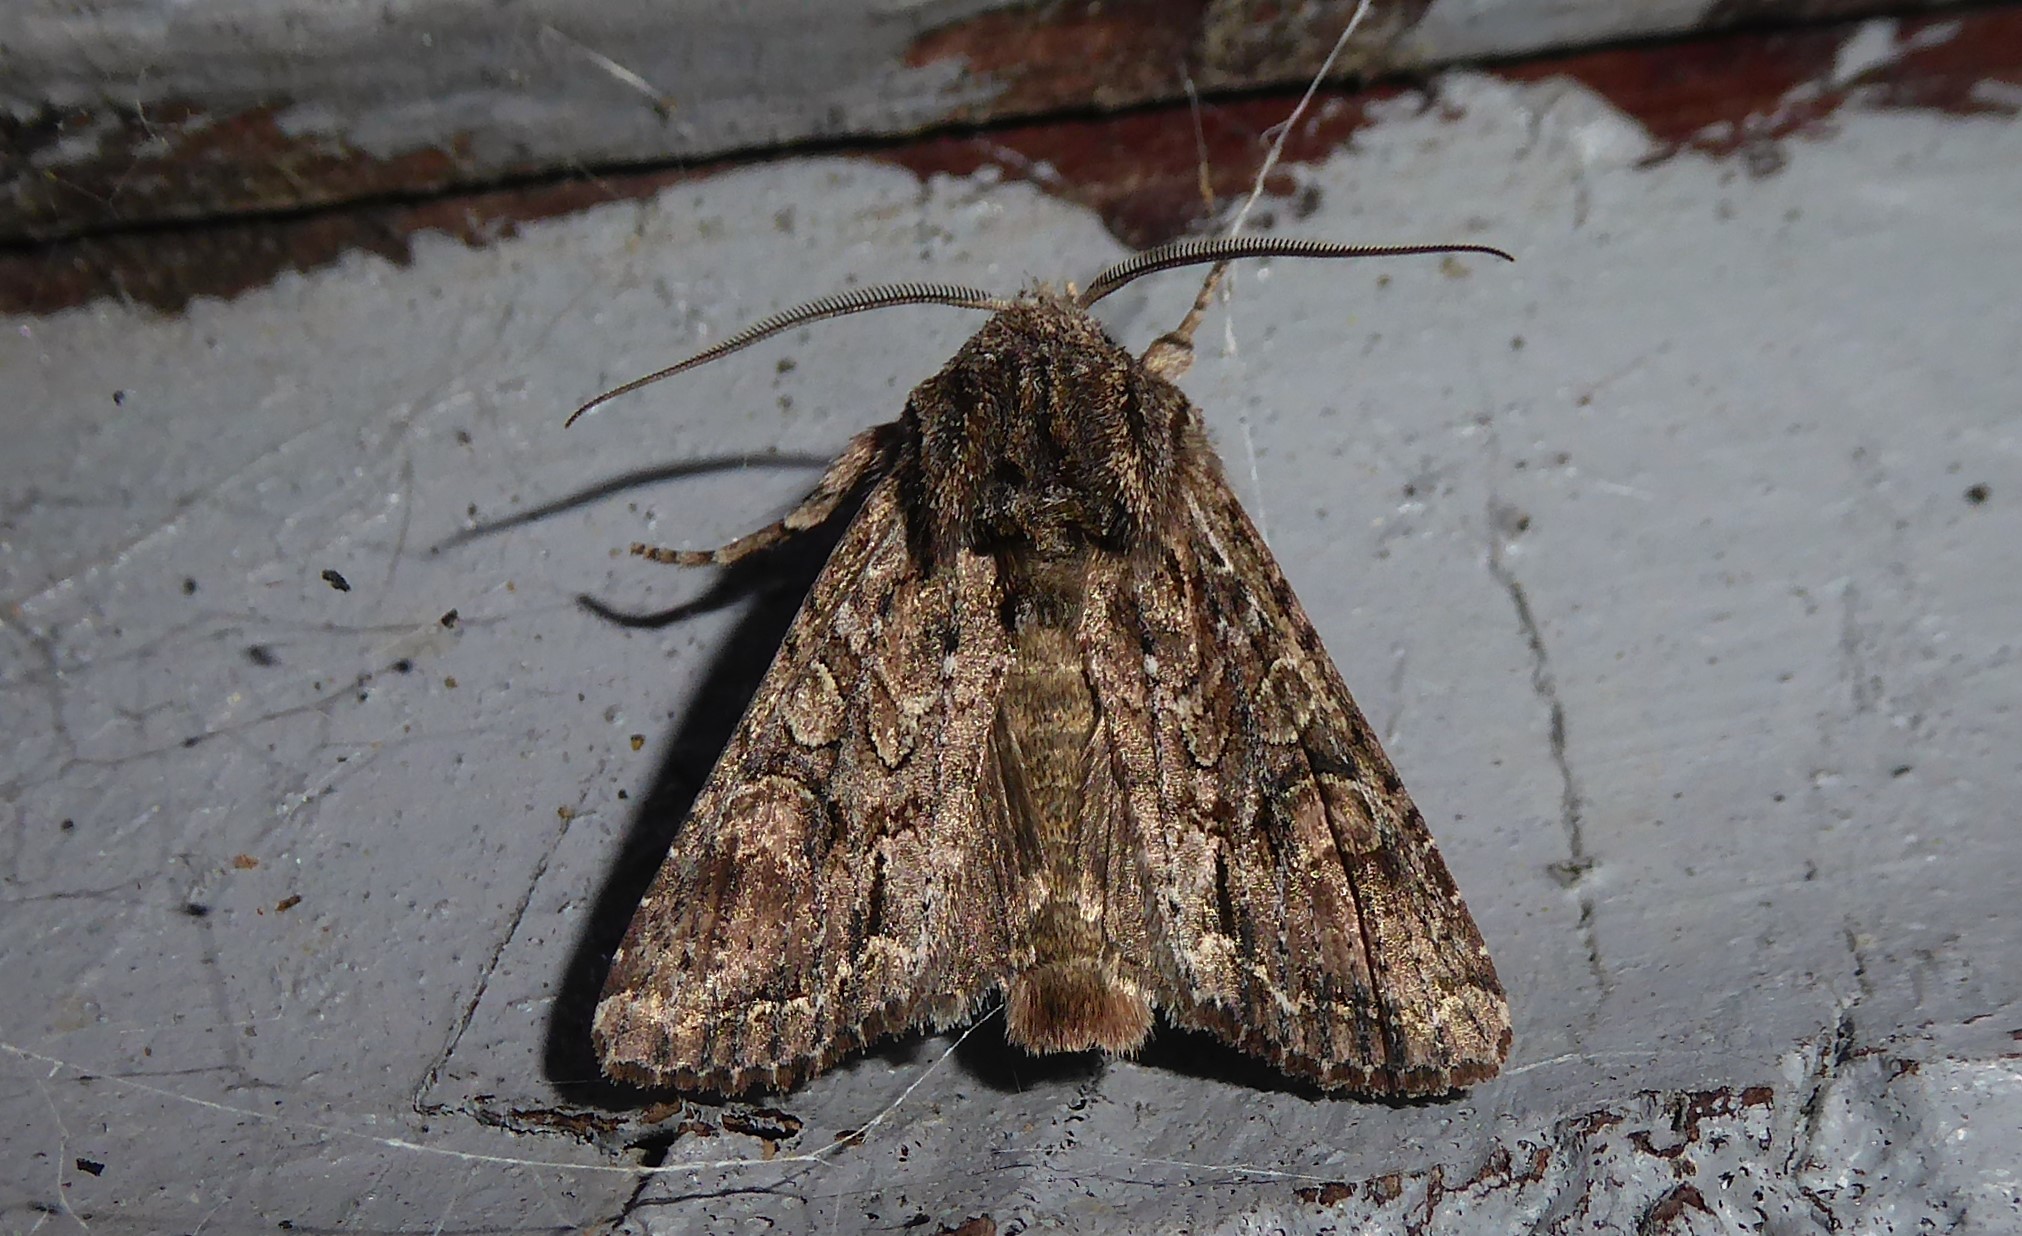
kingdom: Animalia
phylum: Arthropoda
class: Insecta
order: Lepidoptera
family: Noctuidae
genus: Ichneutica
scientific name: Ichneutica mutans
